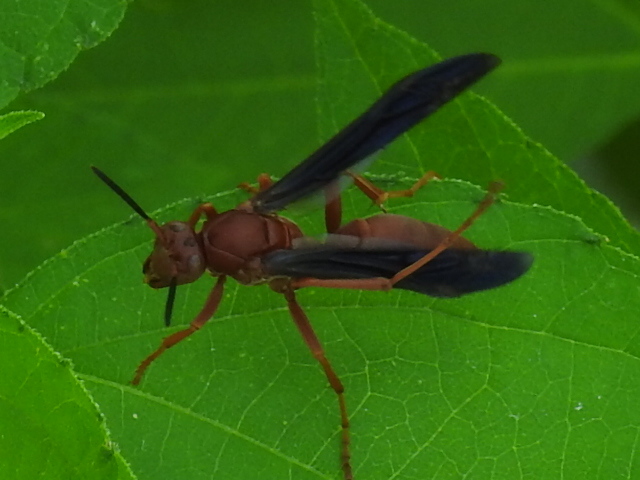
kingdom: Animalia
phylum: Arthropoda
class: Insecta
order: Hymenoptera
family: Eumenidae
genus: Polistes
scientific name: Polistes
